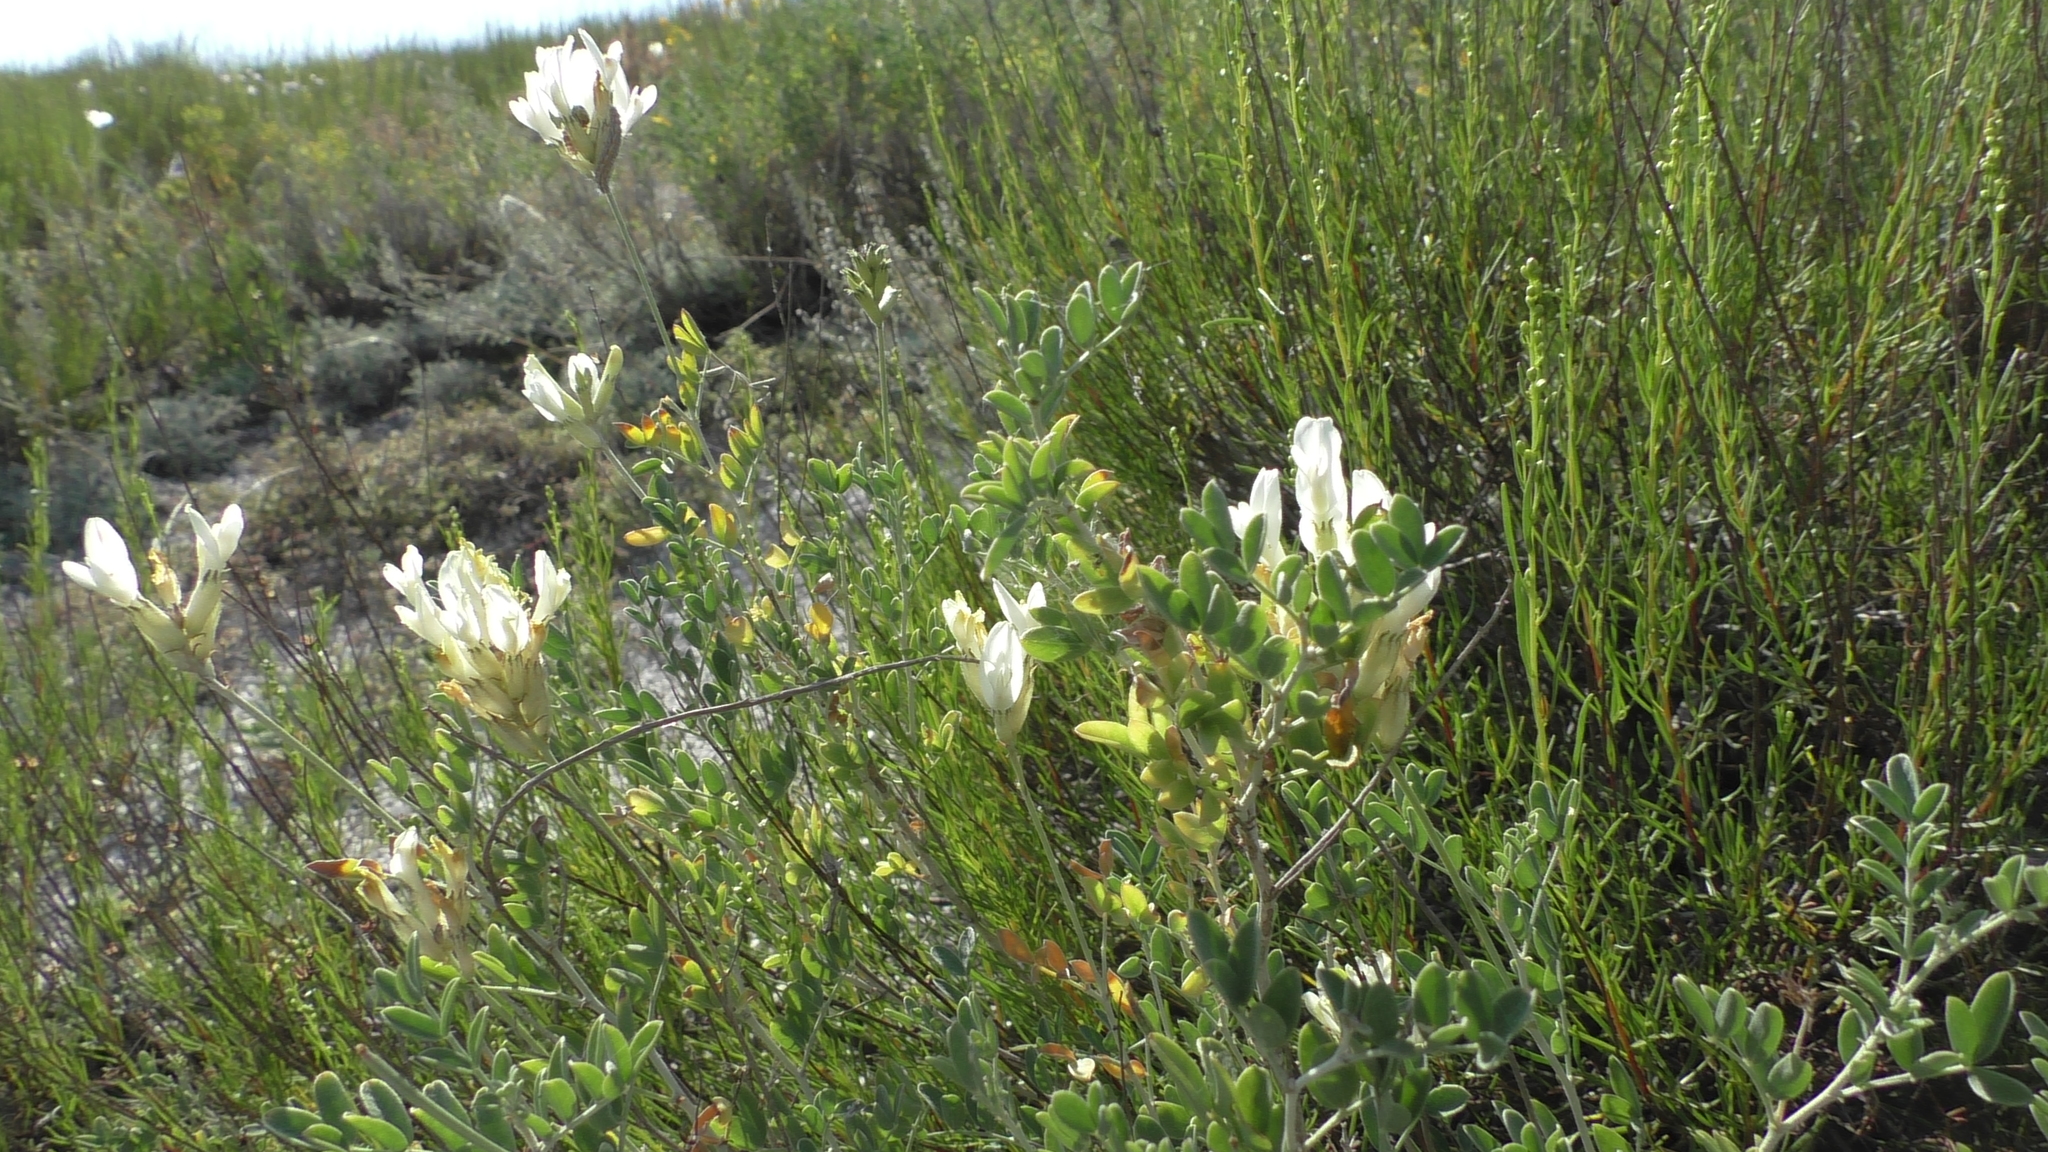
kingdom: Plantae
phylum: Tracheophyta
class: Magnoliopsida
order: Fabales
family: Fabaceae
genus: Astragalus
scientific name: Astragalus albicaulis
